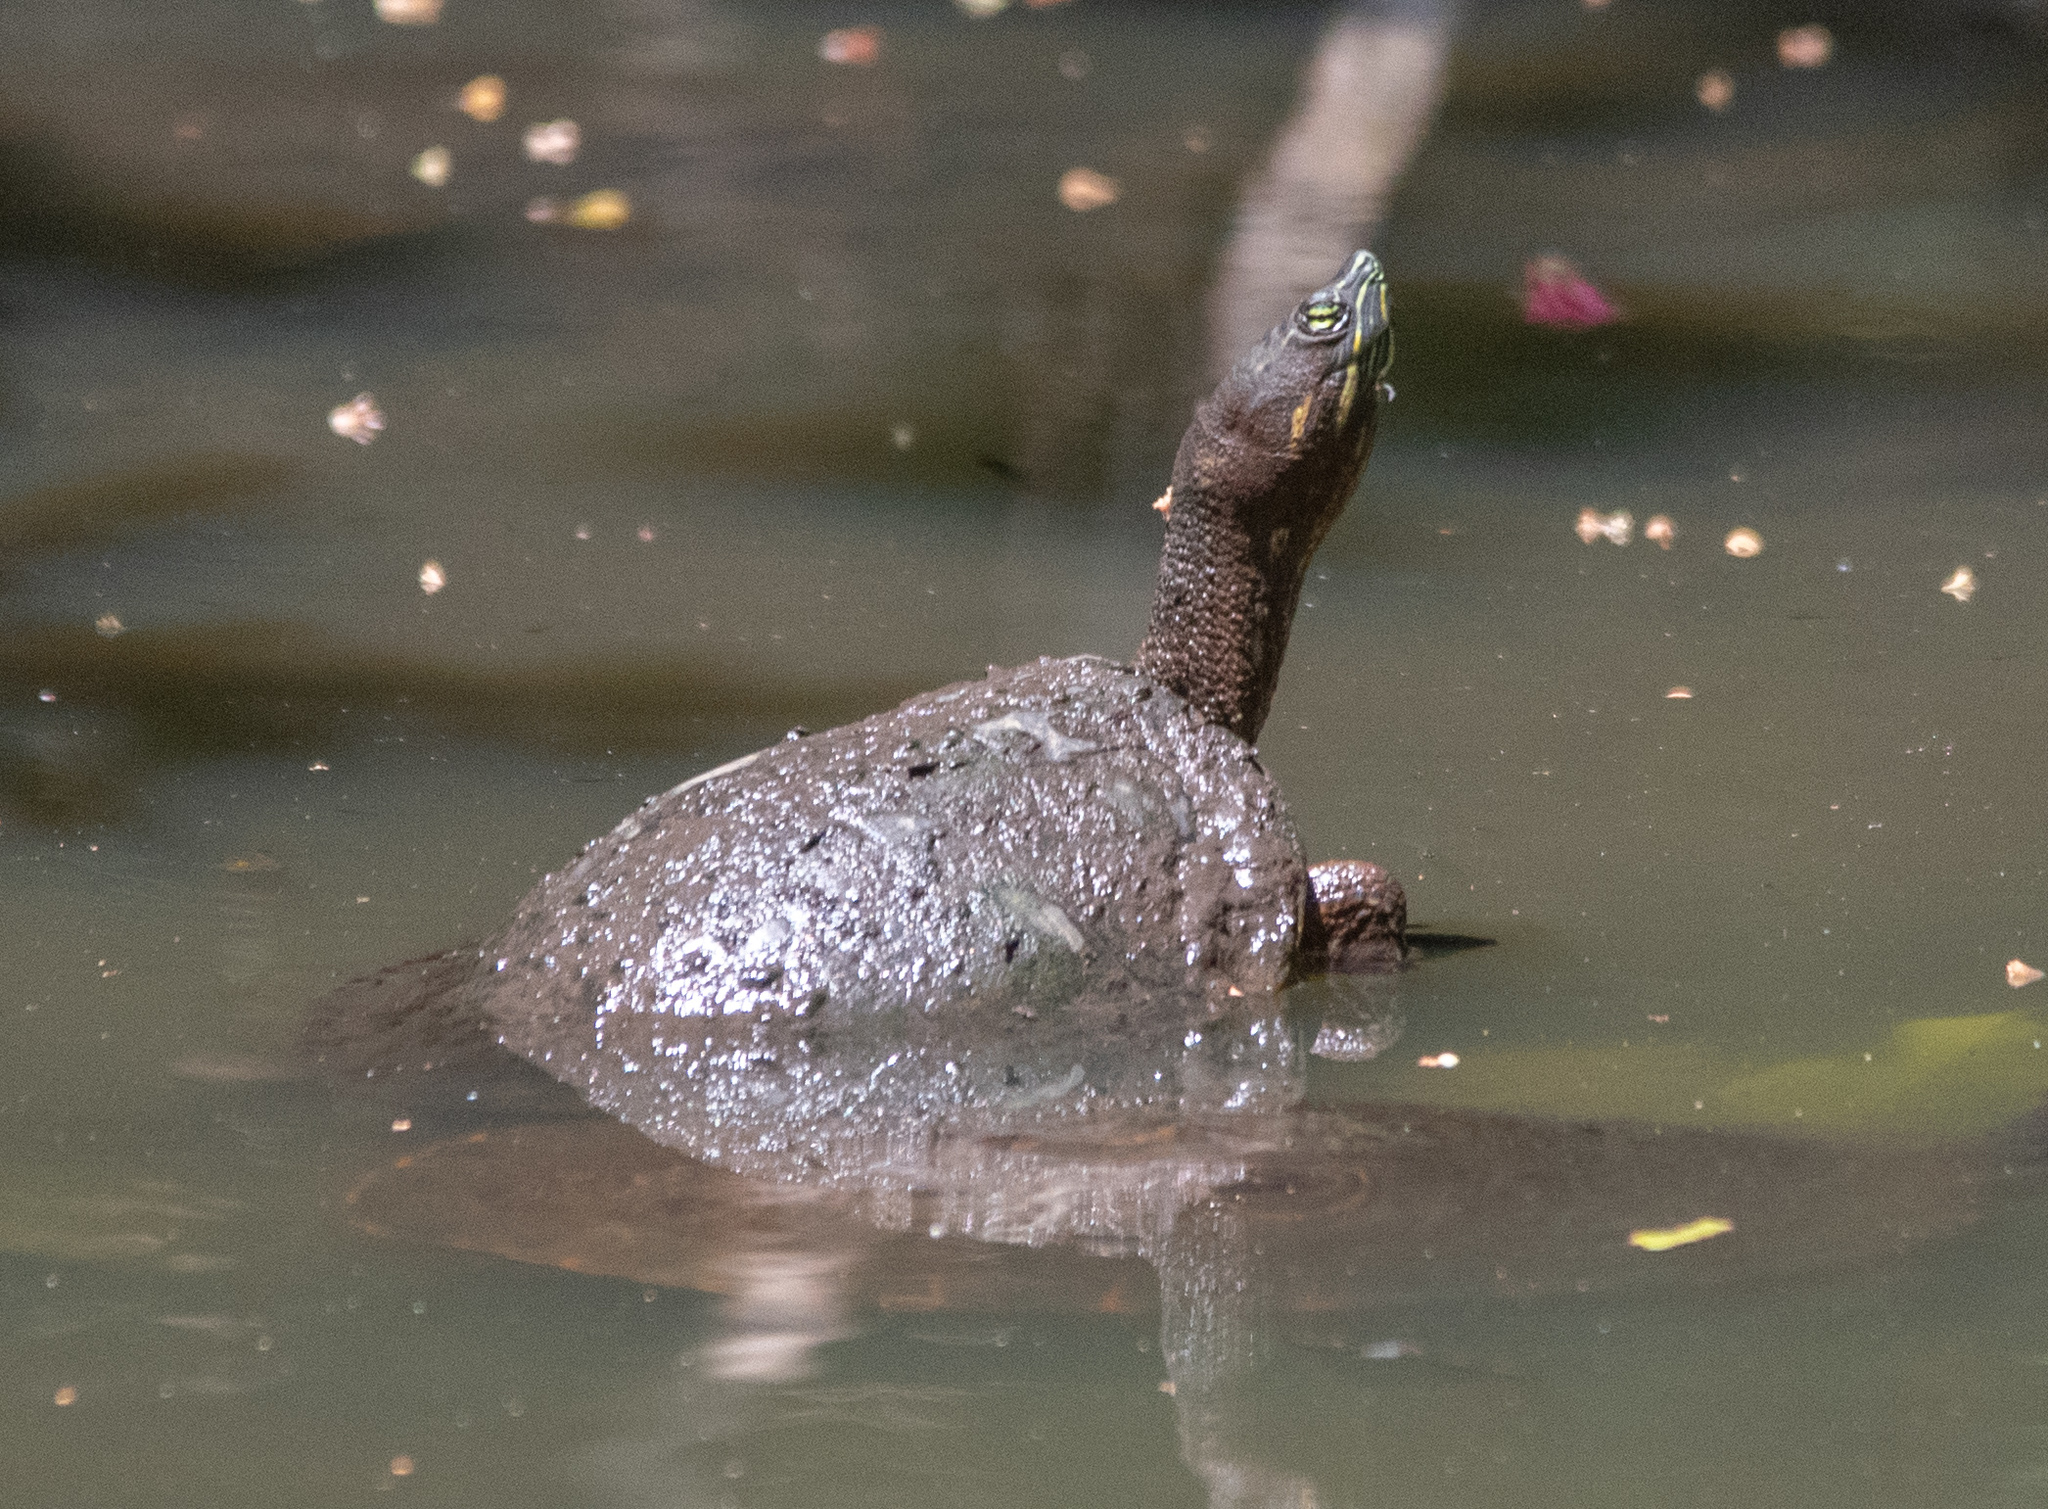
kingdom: Animalia
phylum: Chordata
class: Testudines
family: Emydidae
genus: Trachemys
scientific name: Trachemys grayi
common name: Gray's slider
